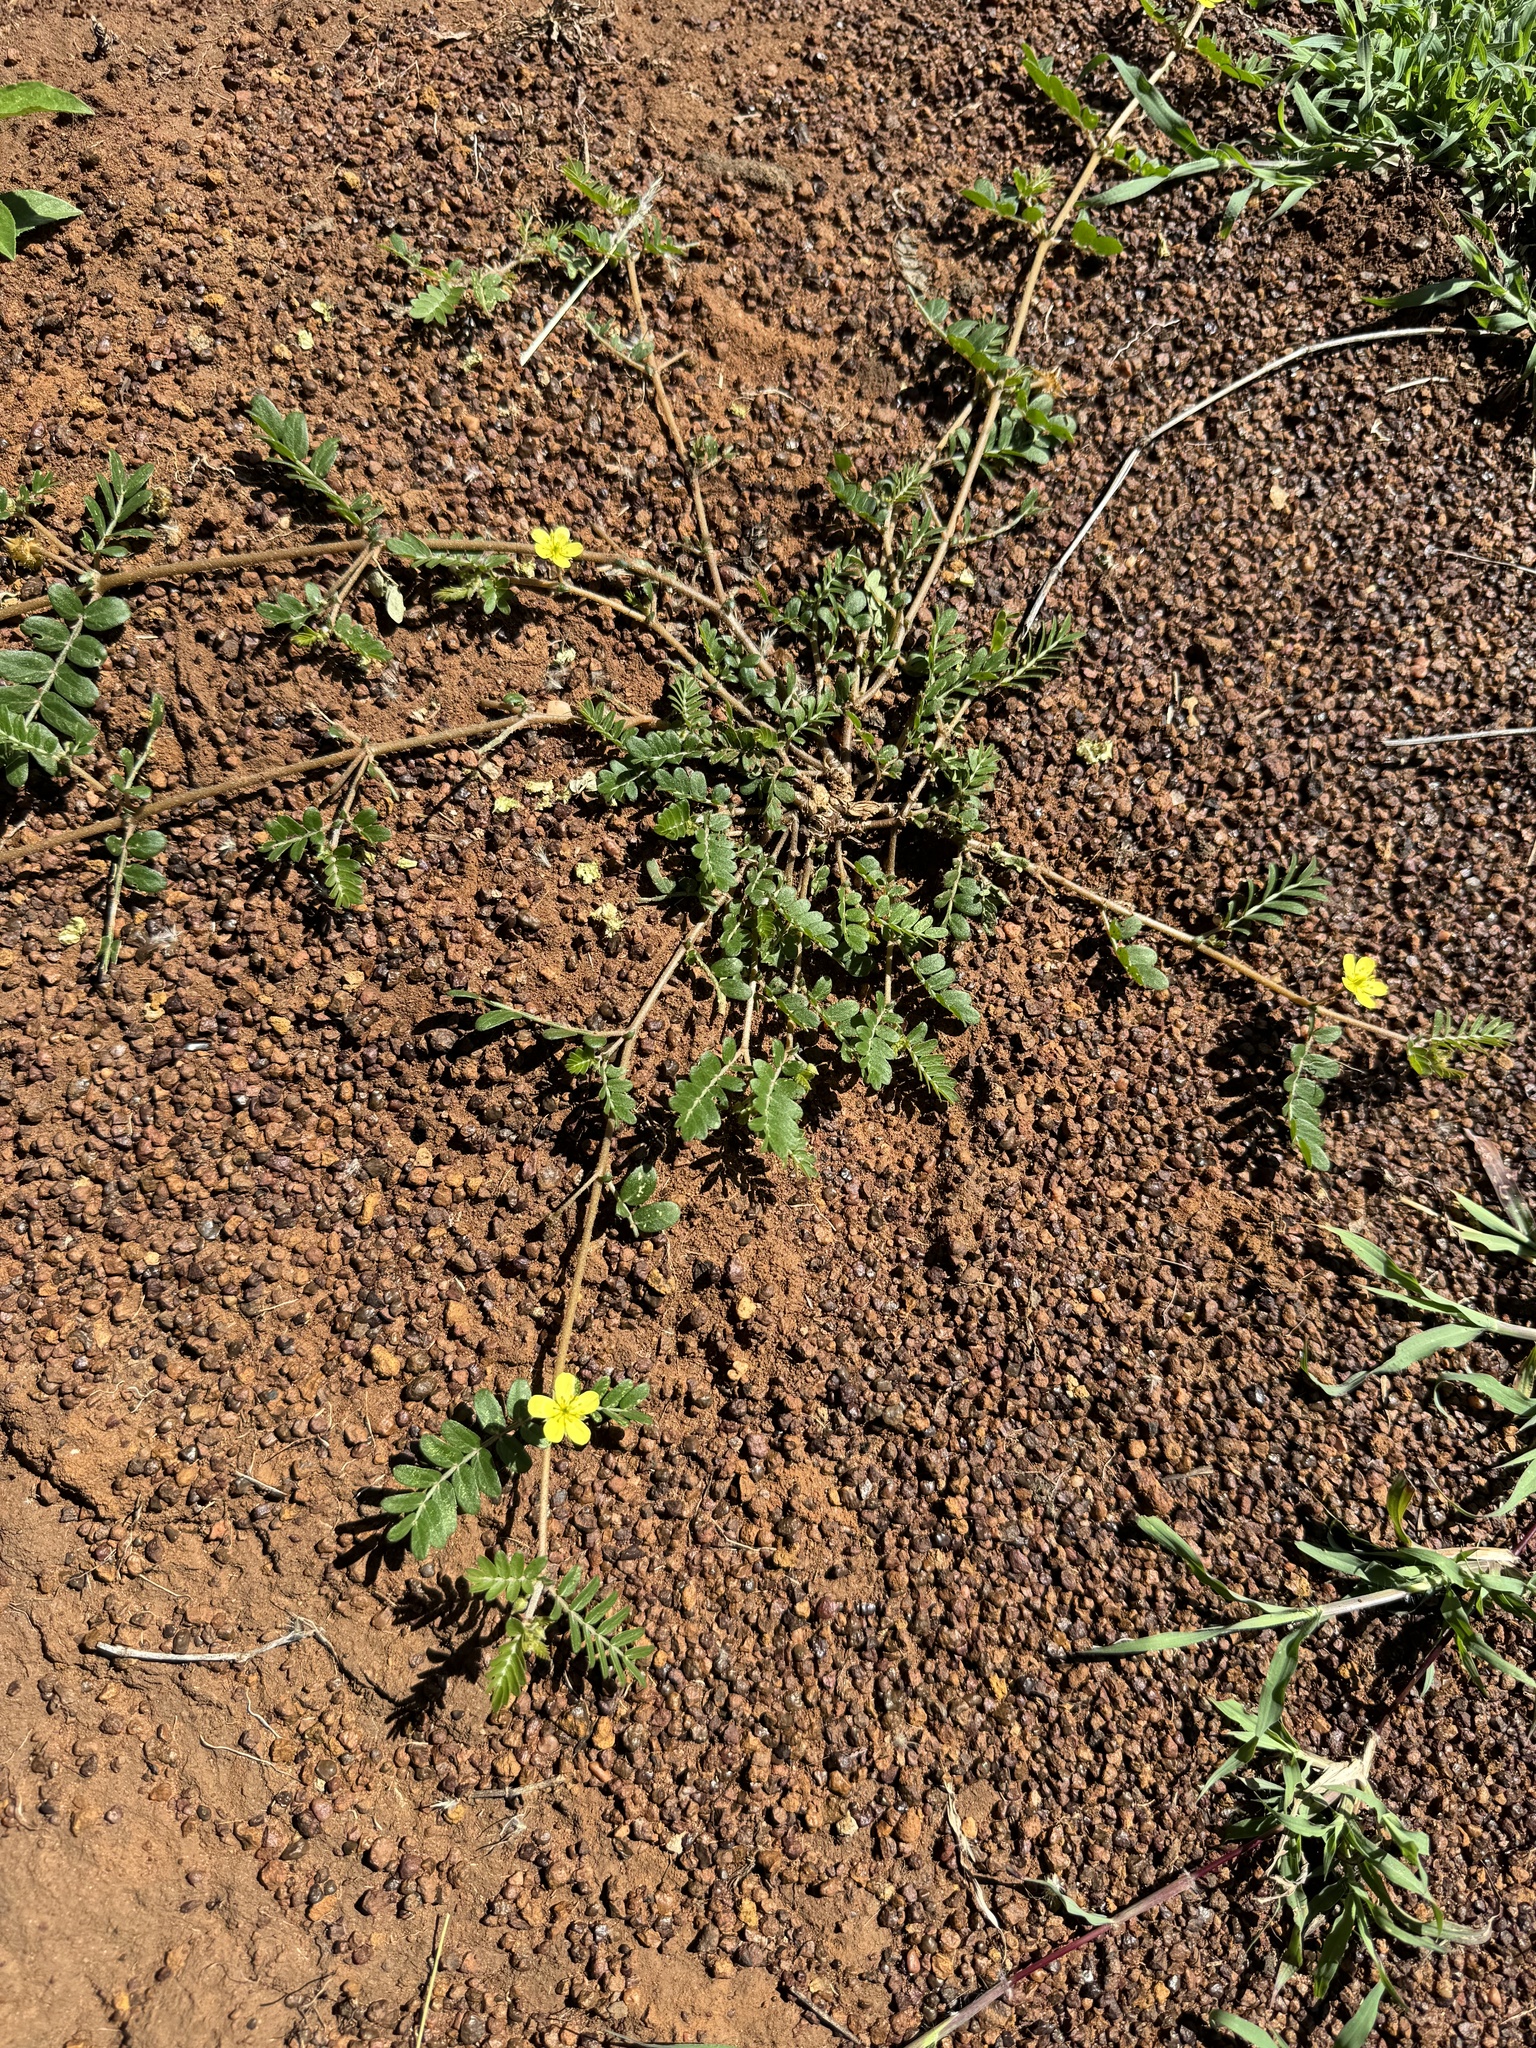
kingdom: Plantae
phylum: Tracheophyta
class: Magnoliopsida
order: Zygophyllales
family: Zygophyllaceae
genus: Tribulus
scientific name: Tribulus terrestris
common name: Puncturevine
